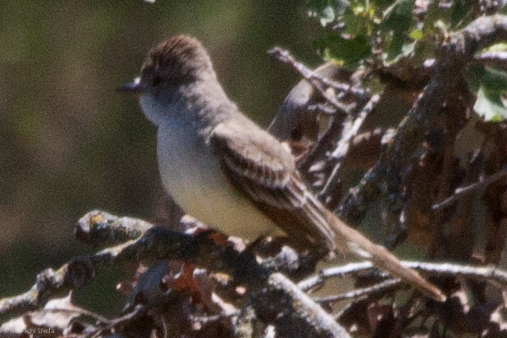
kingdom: Animalia
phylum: Chordata
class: Aves
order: Passeriformes
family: Tyrannidae
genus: Myiarchus
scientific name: Myiarchus cinerascens
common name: Ash-throated flycatcher
